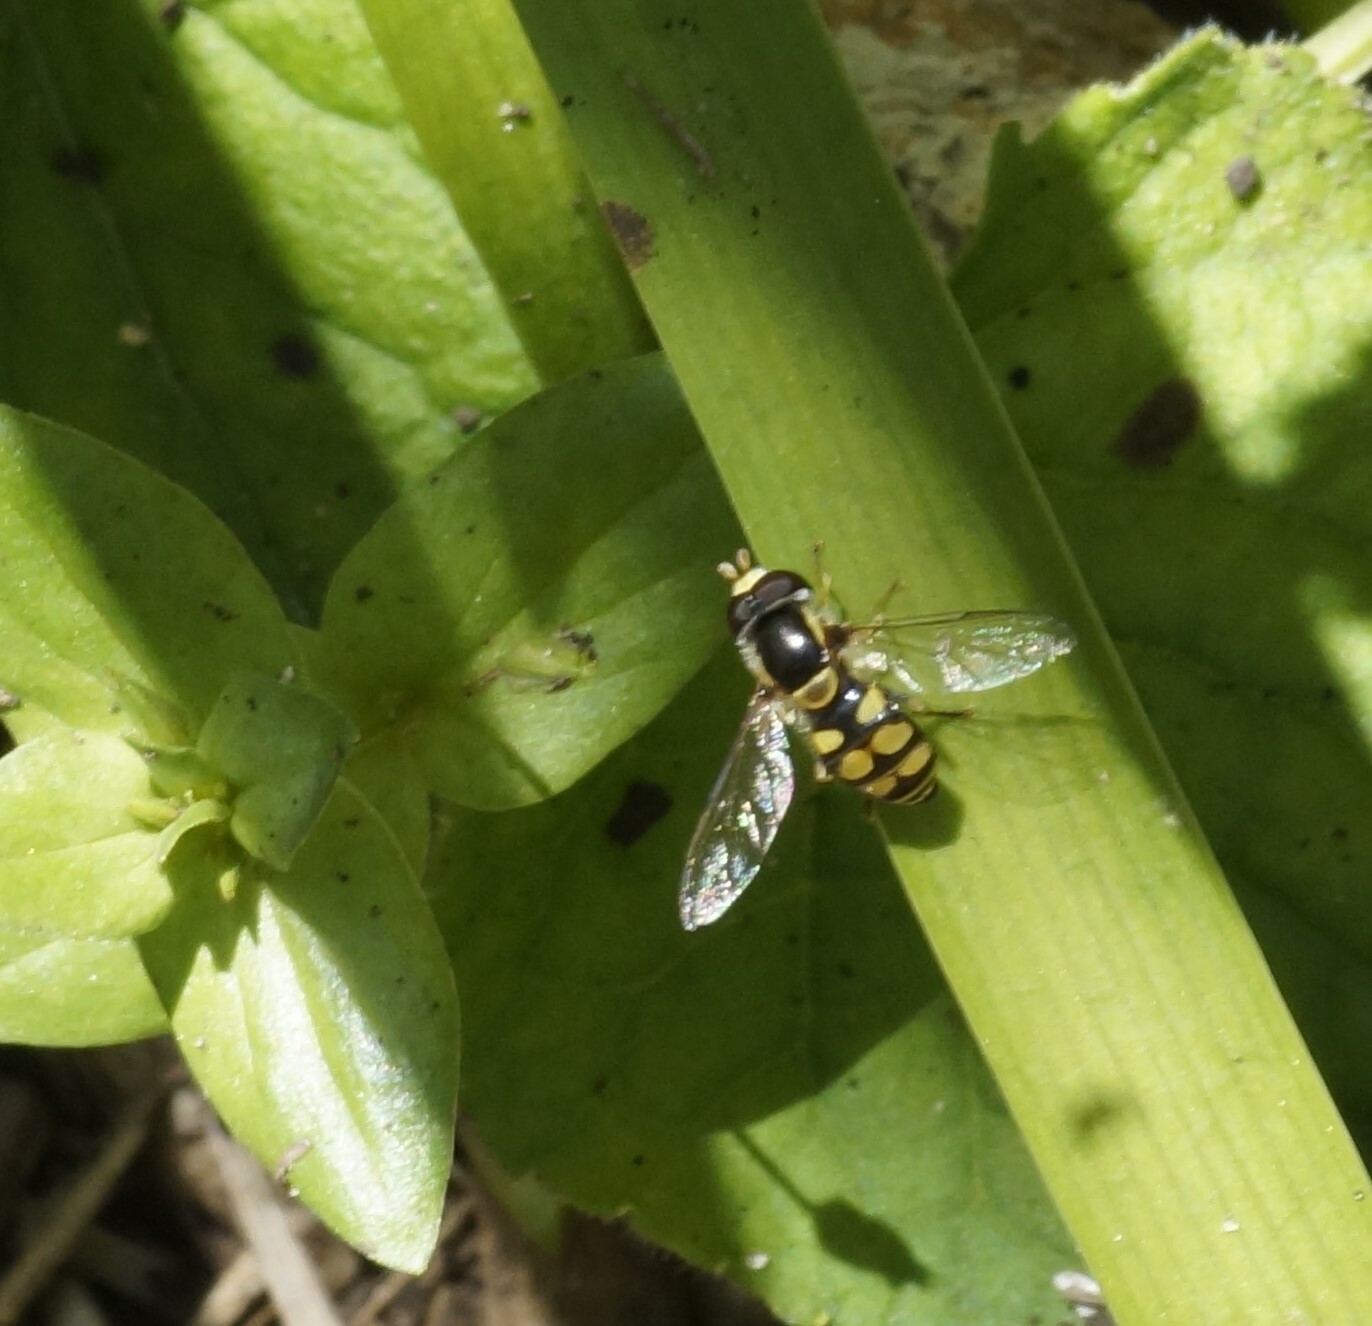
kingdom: Animalia
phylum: Arthropoda
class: Insecta
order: Diptera
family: Syrphidae
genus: Simosyrphus
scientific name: Simosyrphus grandicornis
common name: Hoverfly
